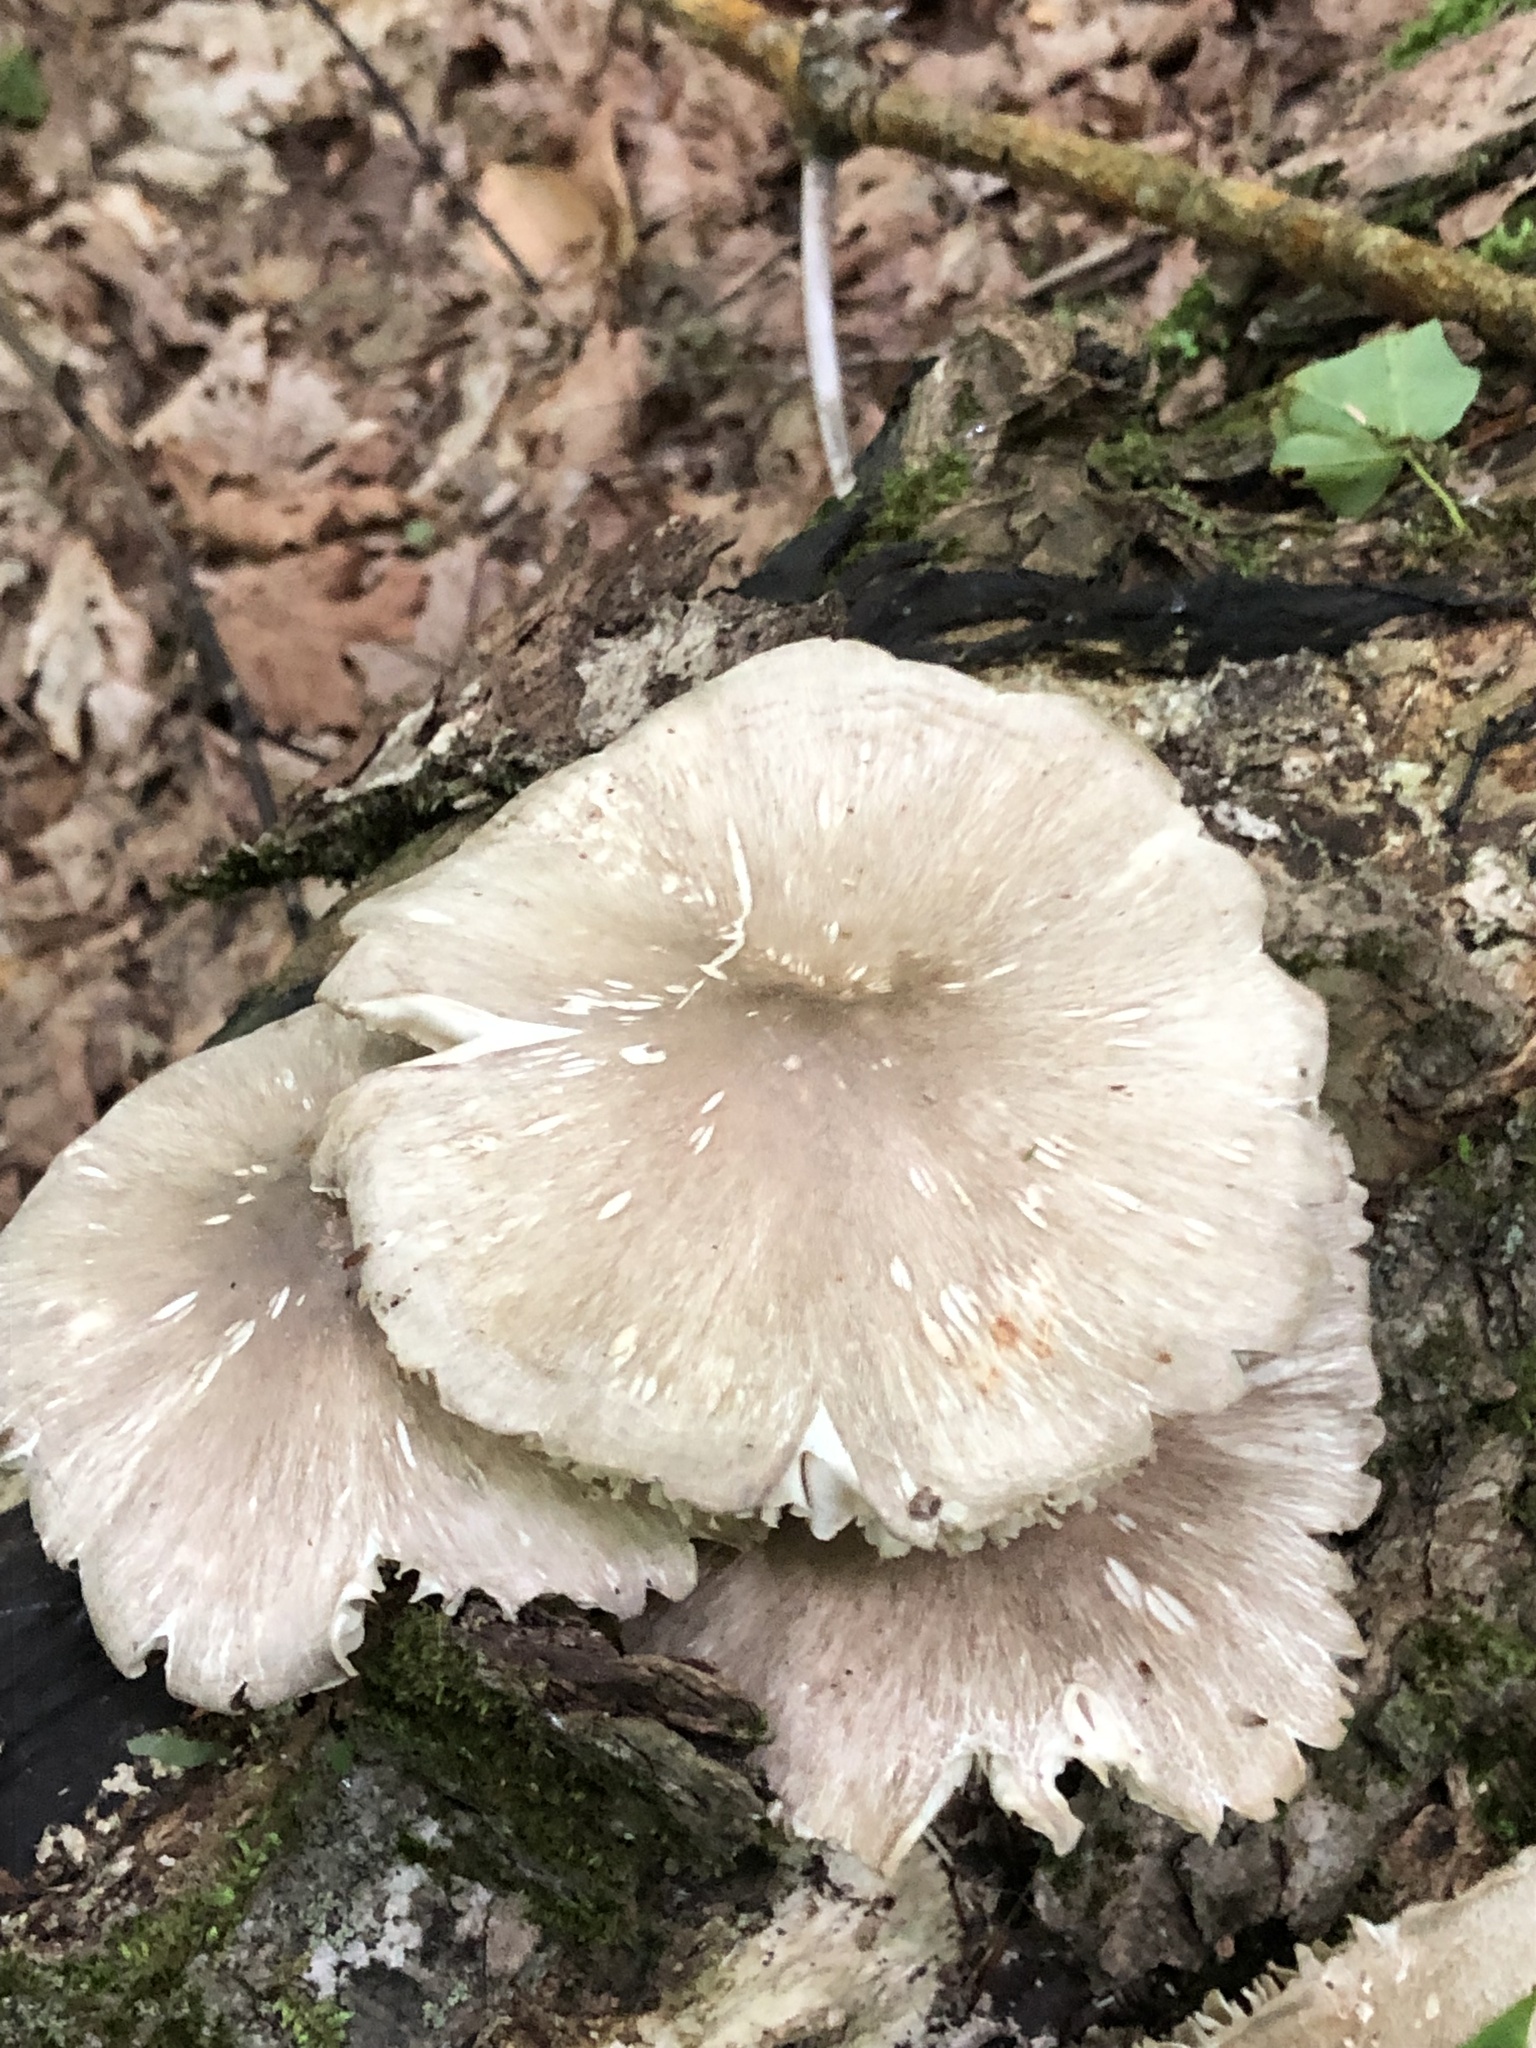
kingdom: Fungi
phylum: Basidiomycota
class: Agaricomycetes
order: Agaricales
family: Tricholomataceae
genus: Megacollybia
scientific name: Megacollybia rodmanii
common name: Eastern american platterful mushroom
